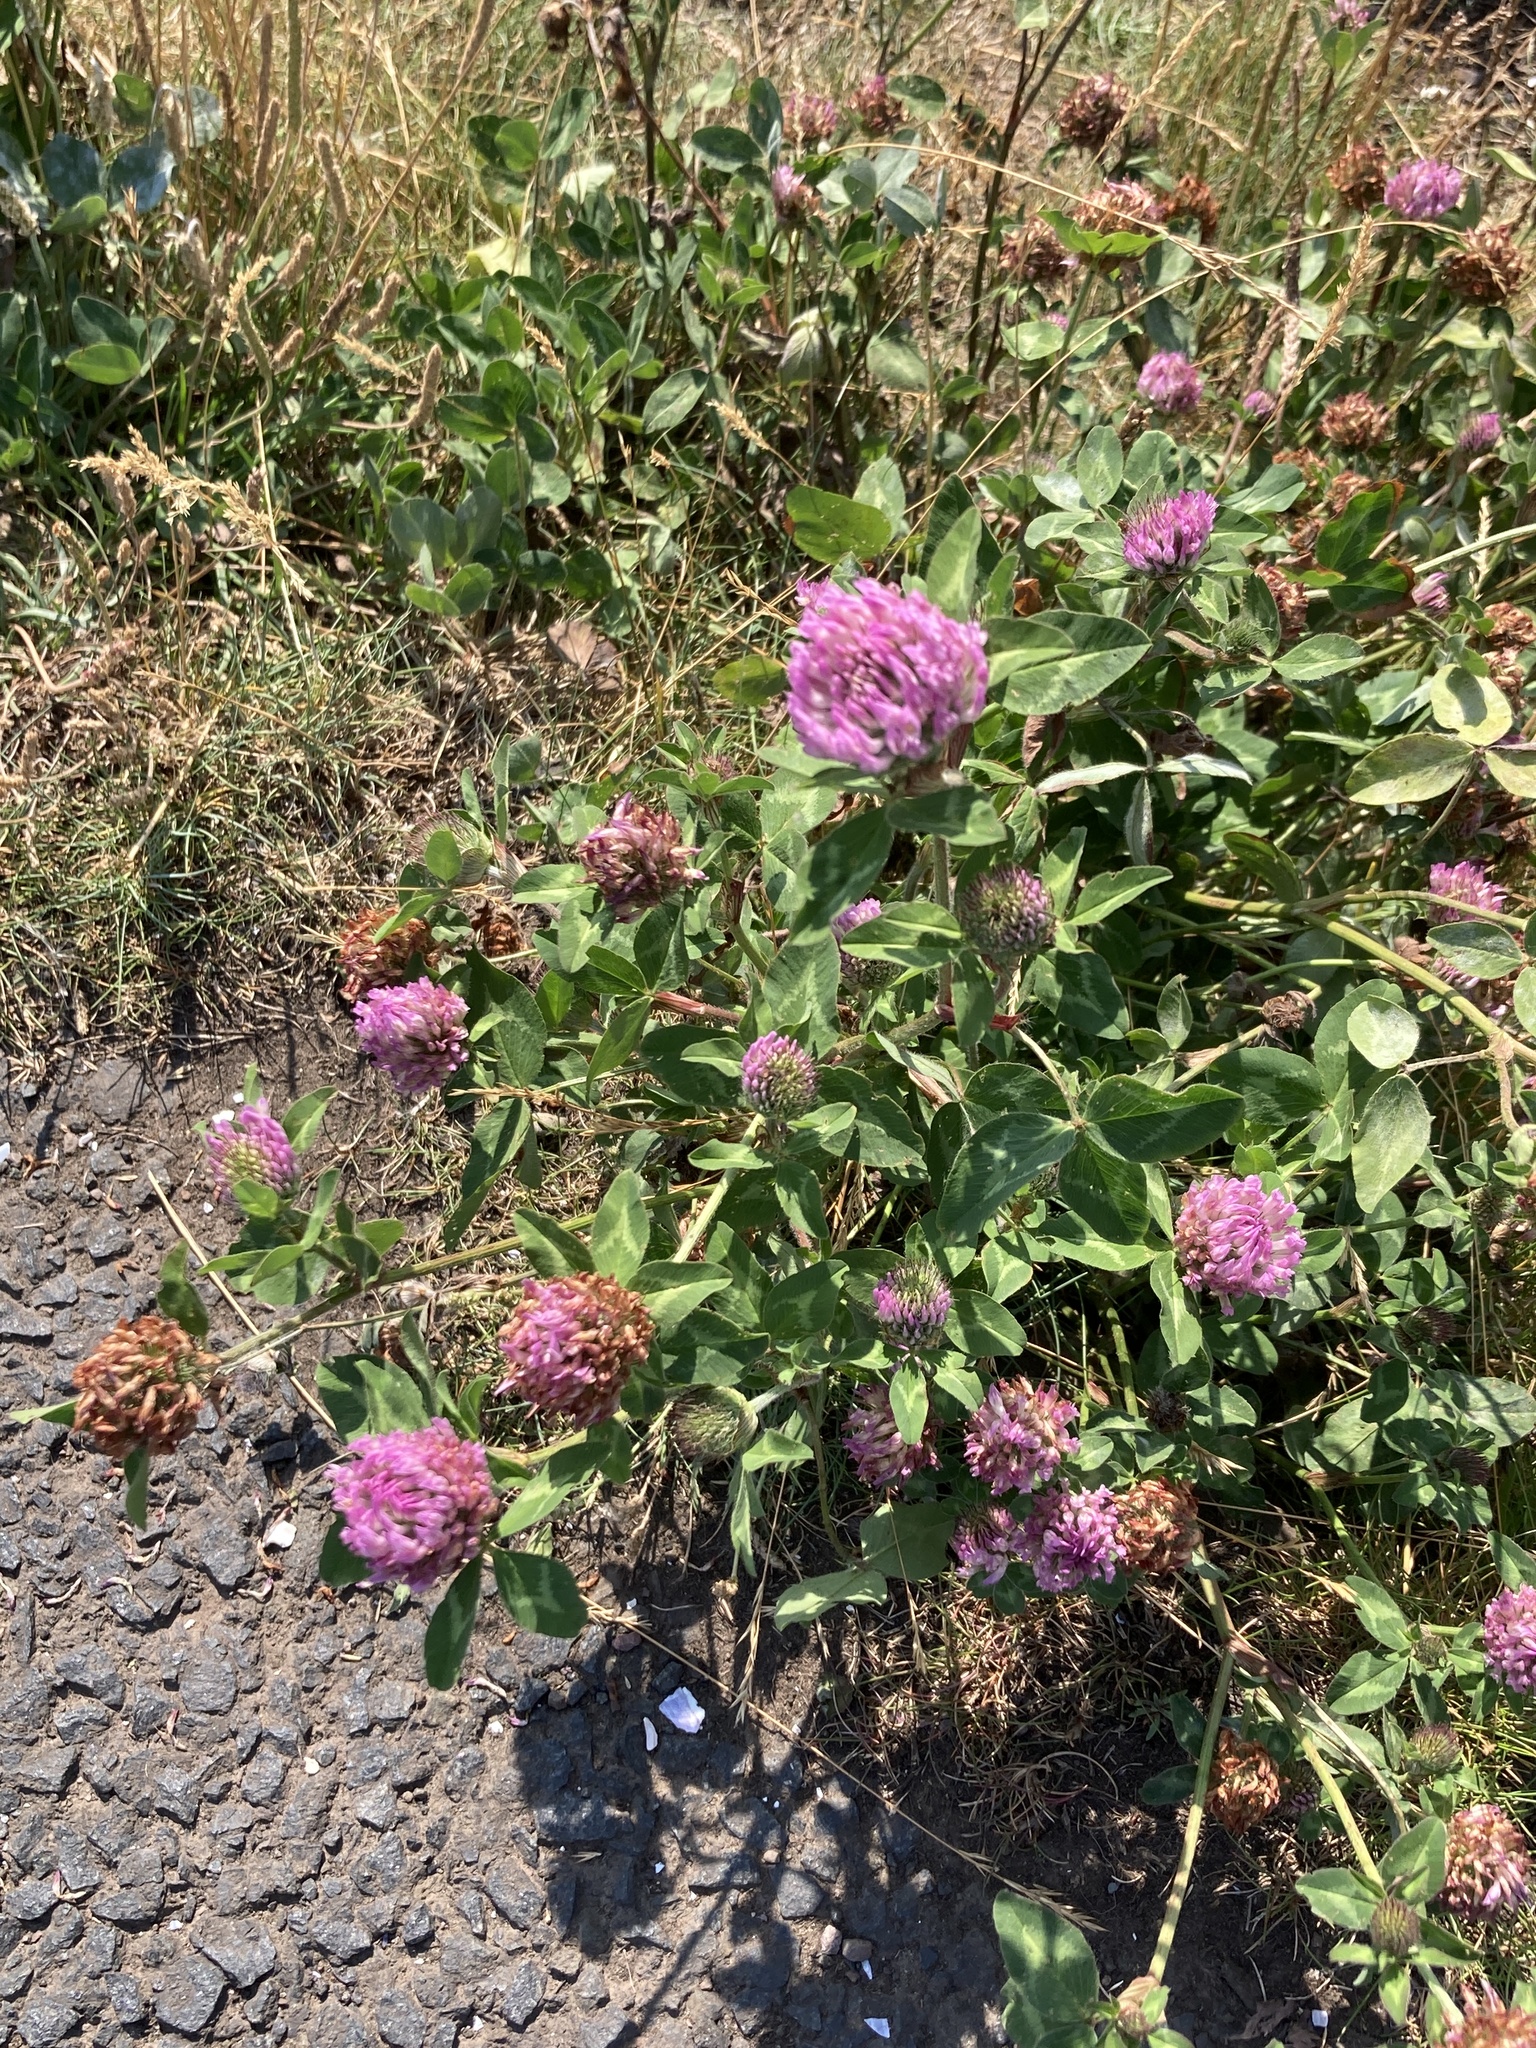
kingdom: Plantae
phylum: Tracheophyta
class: Magnoliopsida
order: Fabales
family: Fabaceae
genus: Trifolium
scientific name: Trifolium pratense
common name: Red clover
